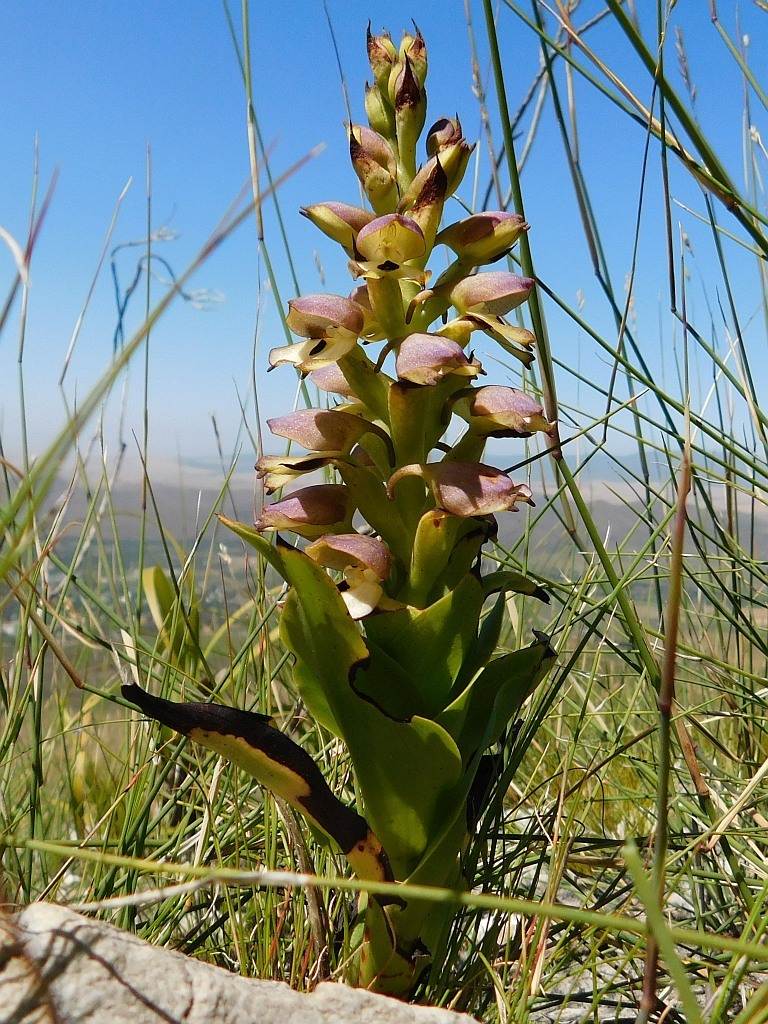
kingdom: Plantae
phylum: Tracheophyta
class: Liliopsida
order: Asparagales
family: Orchidaceae
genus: Disa
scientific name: Disa cornuta
